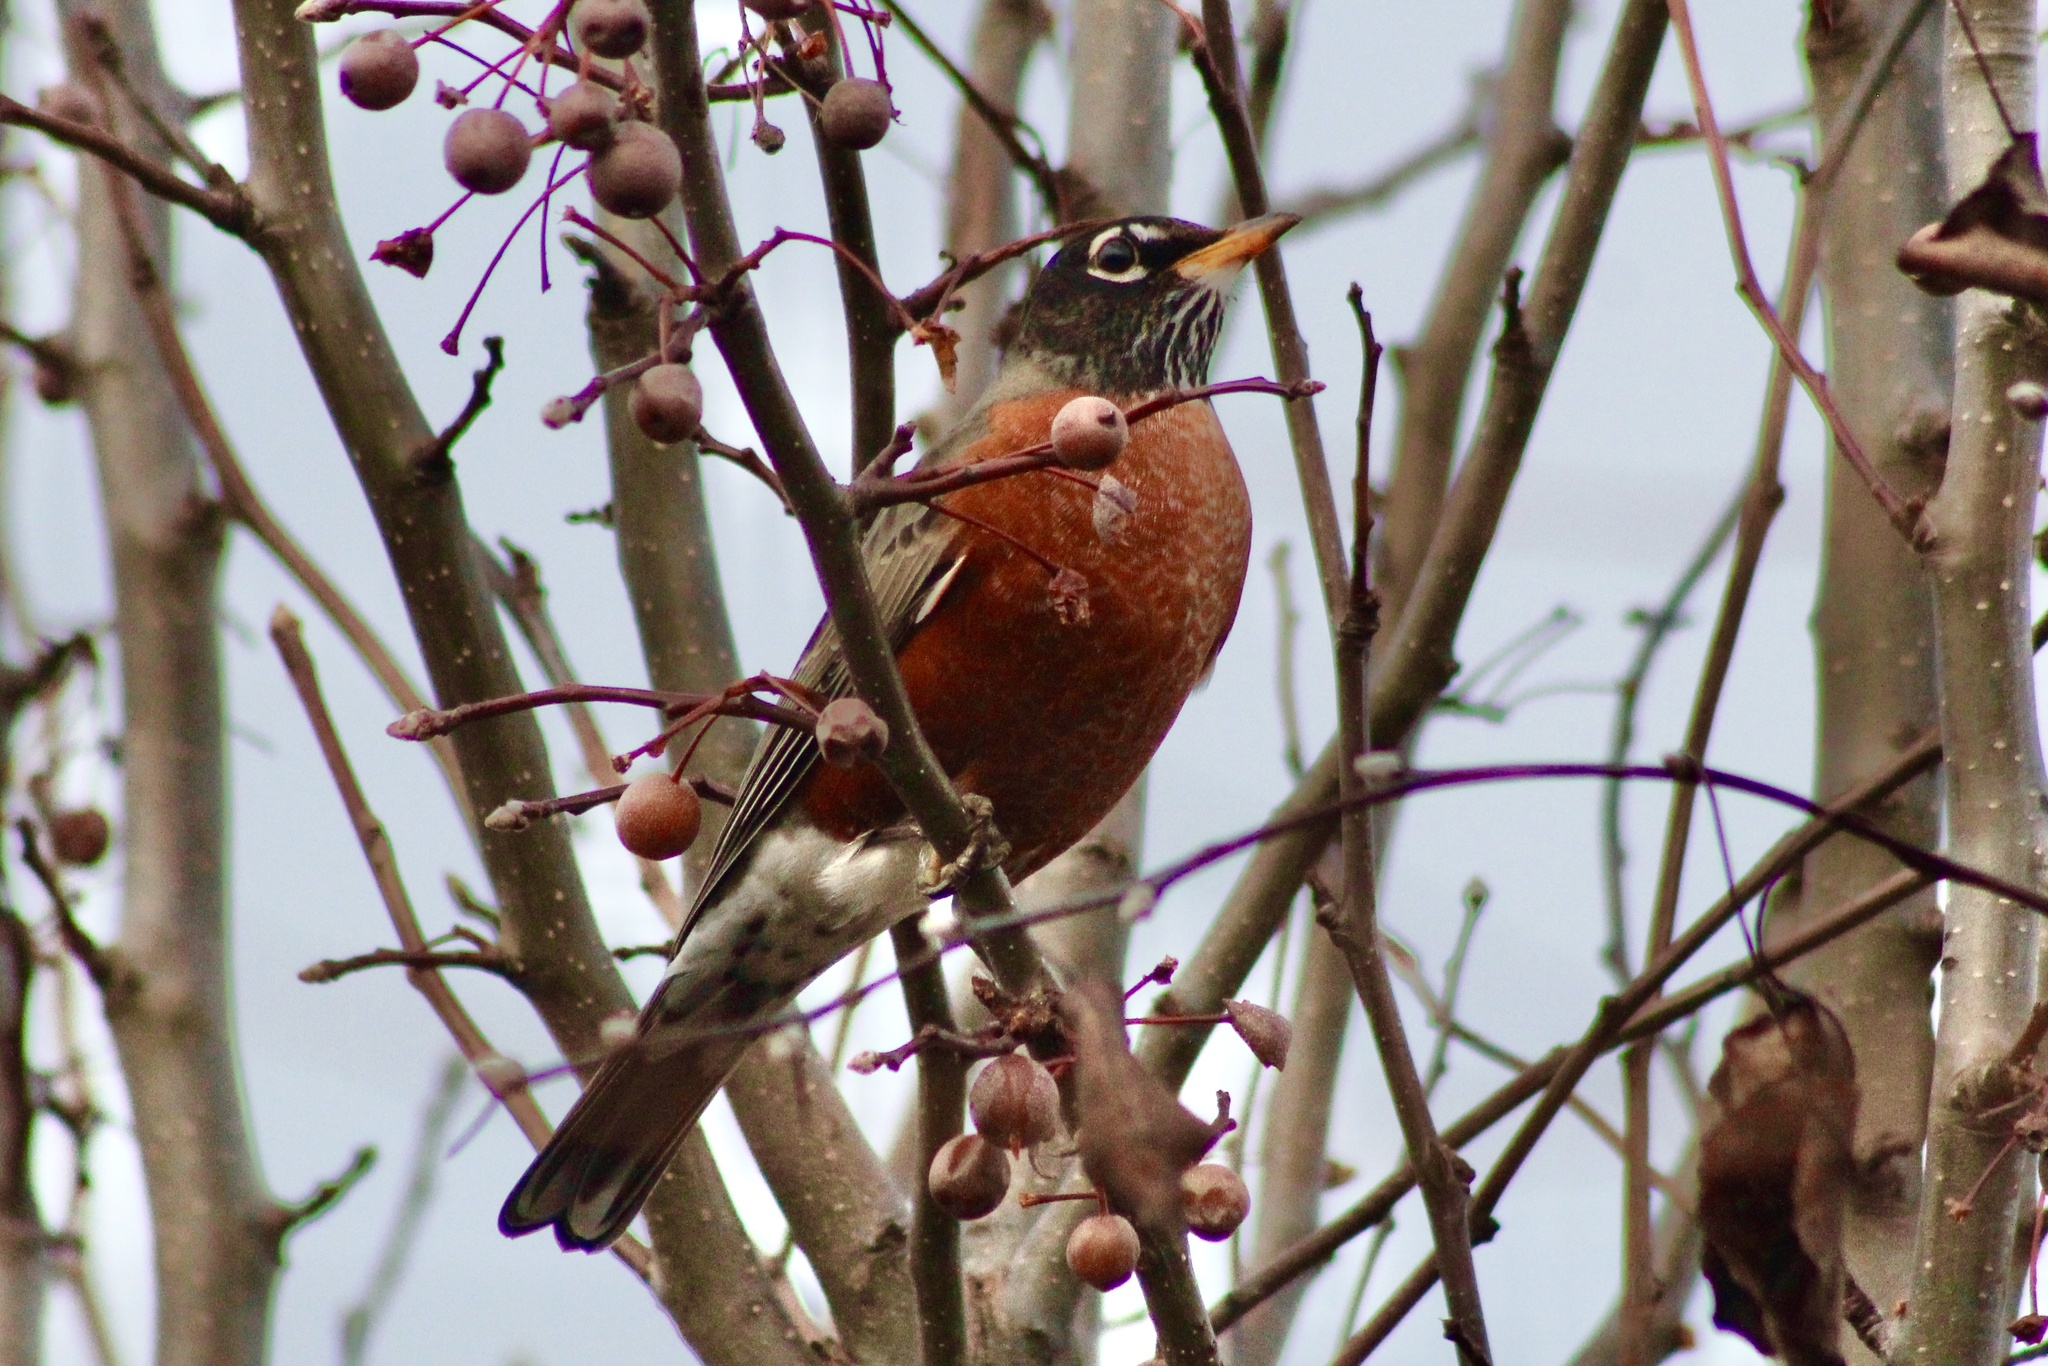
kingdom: Animalia
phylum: Chordata
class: Aves
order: Passeriformes
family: Turdidae
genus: Turdus
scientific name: Turdus migratorius
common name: American robin
